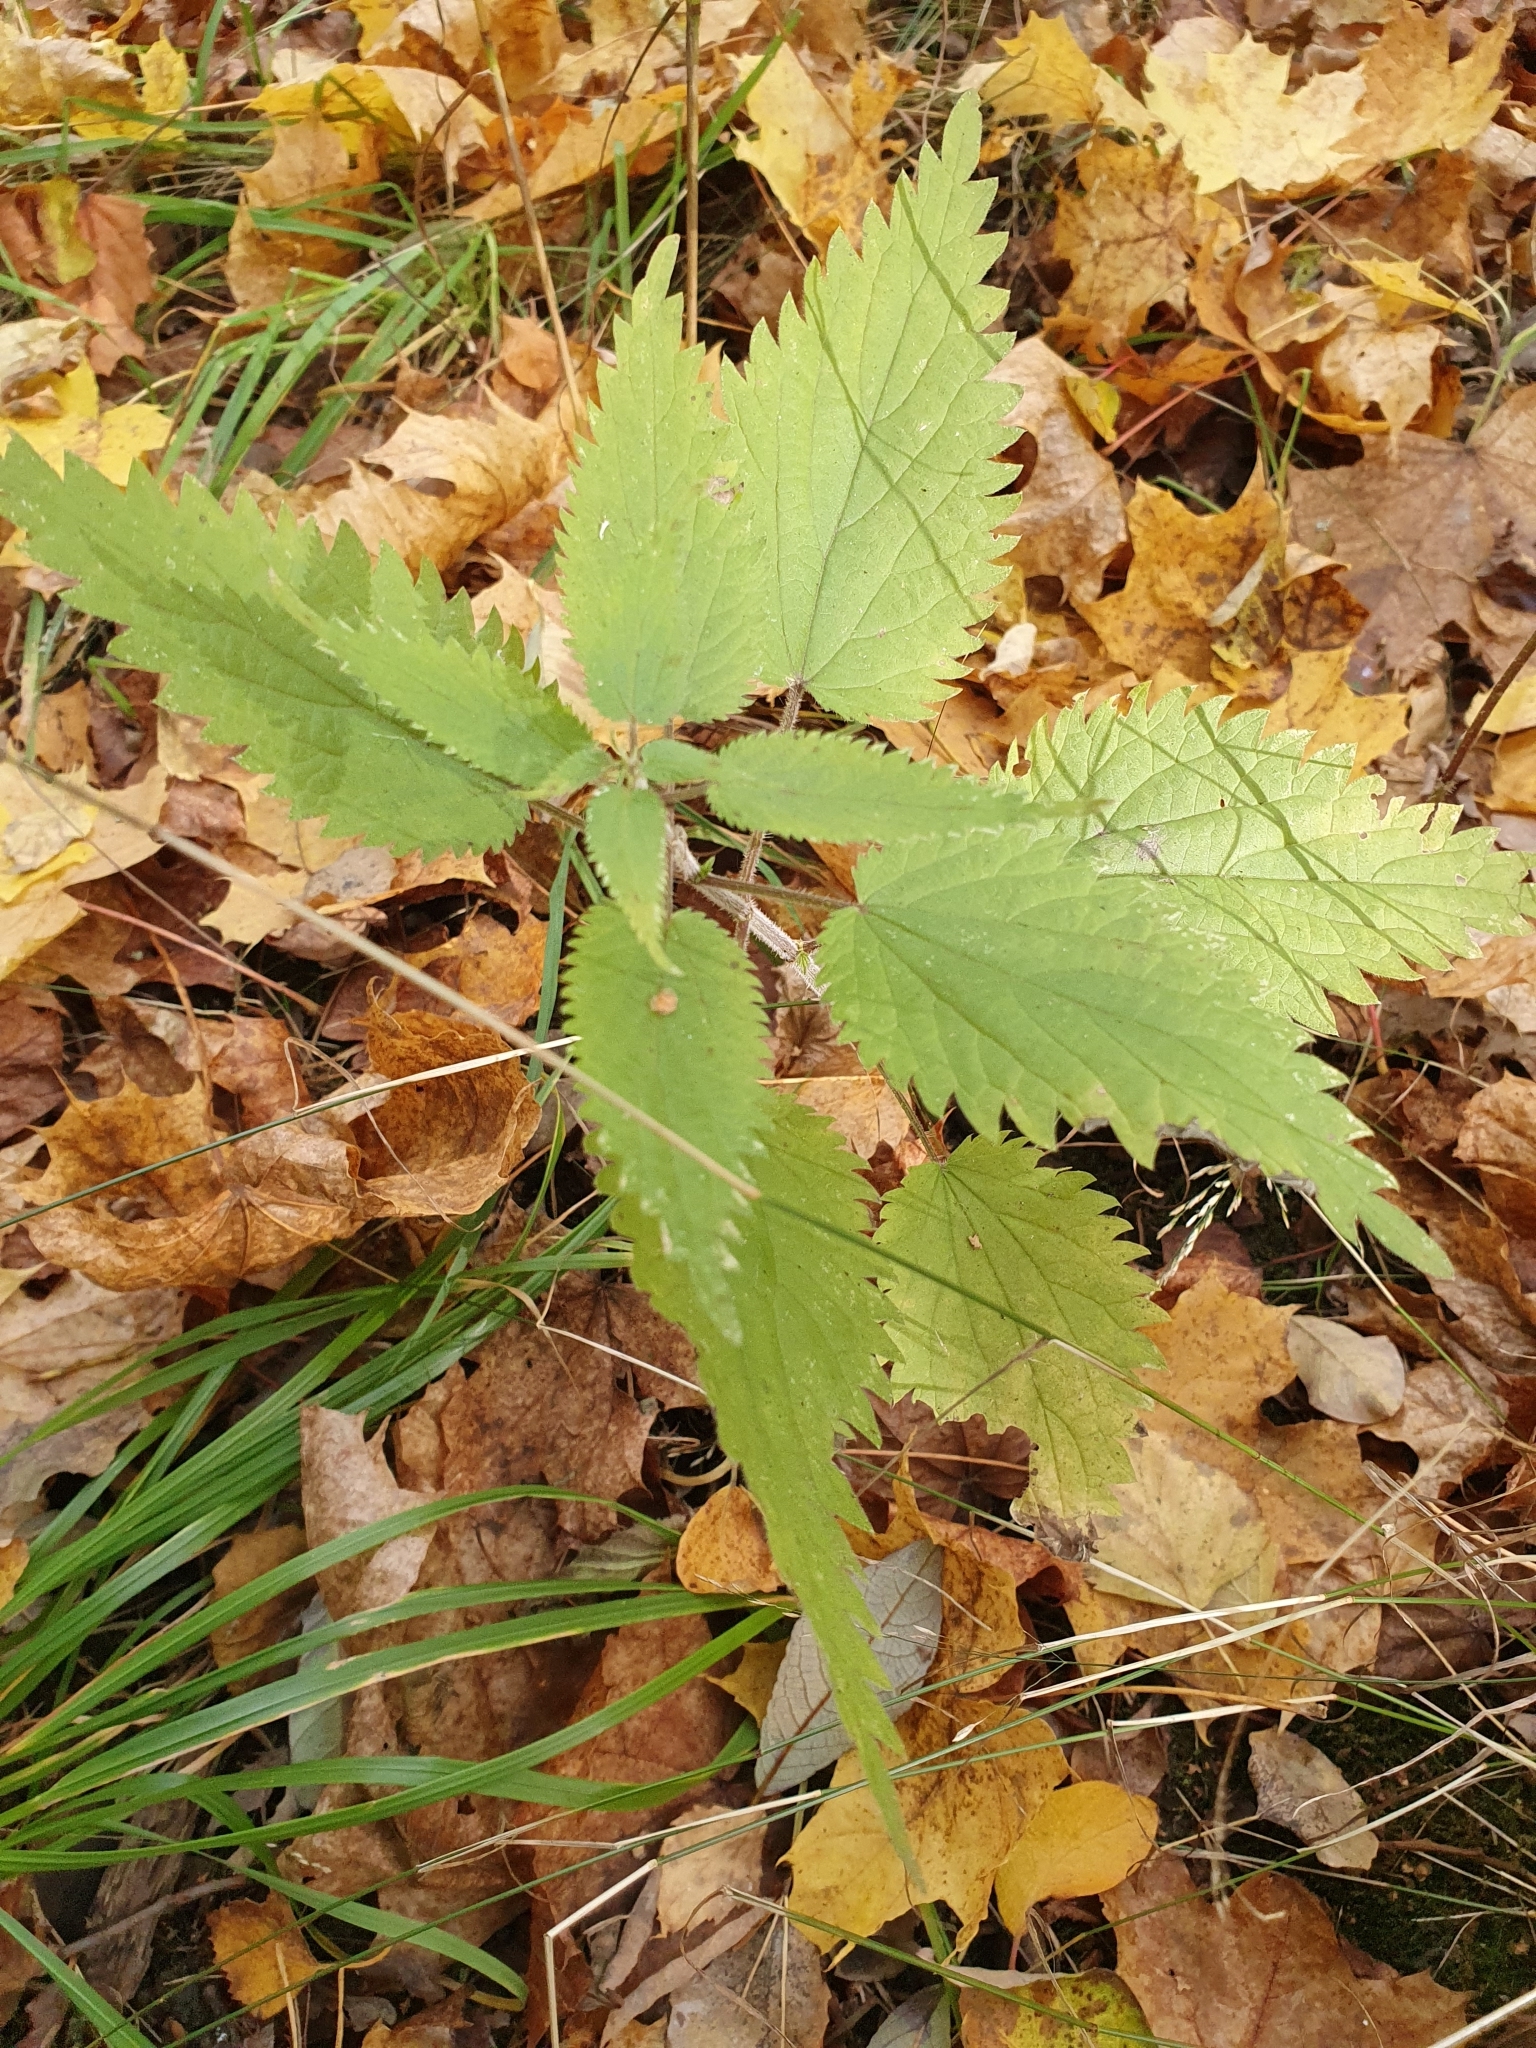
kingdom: Plantae
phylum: Tracheophyta
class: Magnoliopsida
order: Rosales
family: Urticaceae
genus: Urtica
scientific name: Urtica dioica
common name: Common nettle
